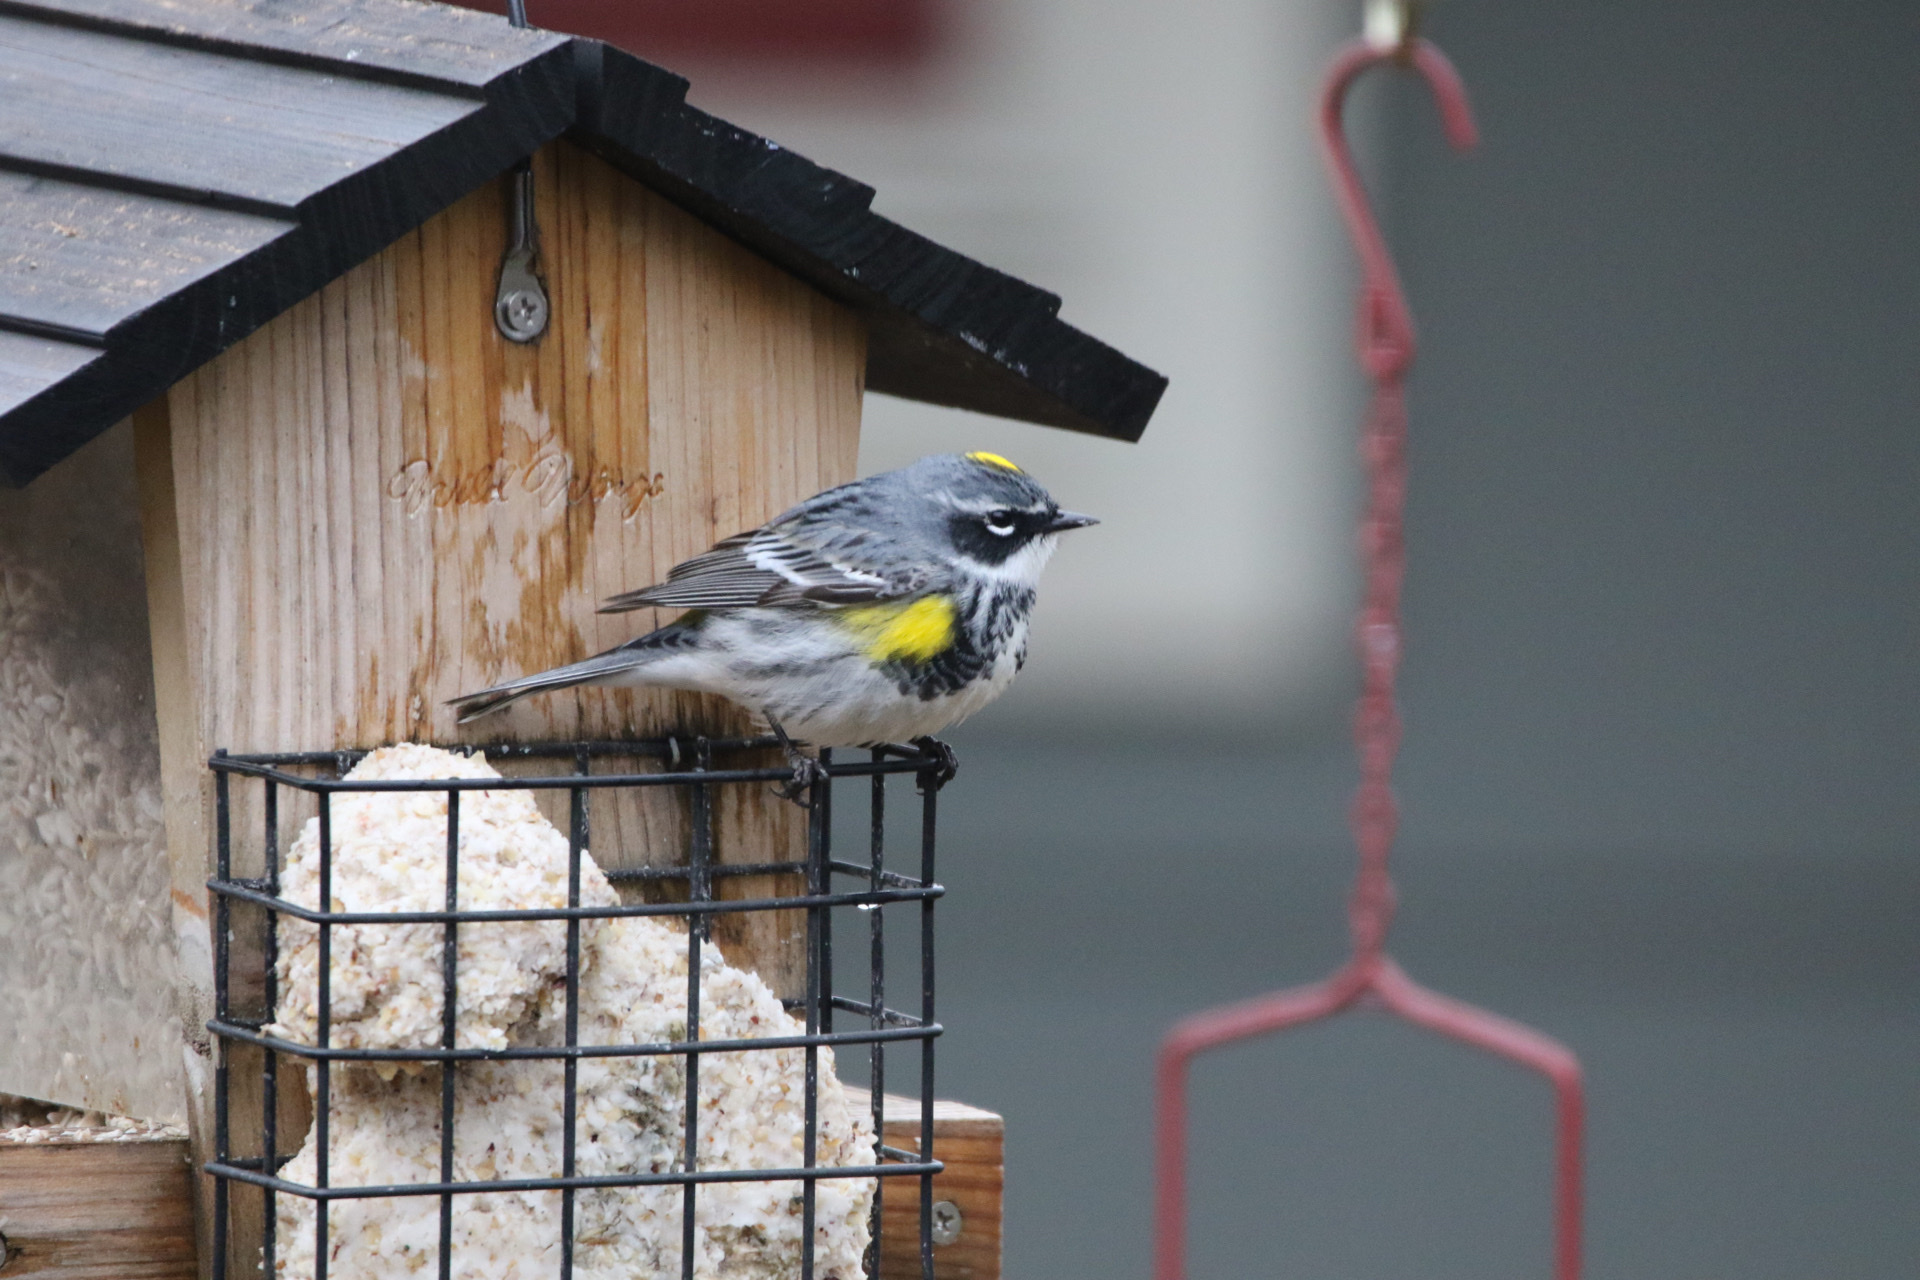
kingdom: Animalia
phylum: Chordata
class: Aves
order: Passeriformes
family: Parulidae
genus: Setophaga
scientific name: Setophaga coronata
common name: Myrtle warbler
